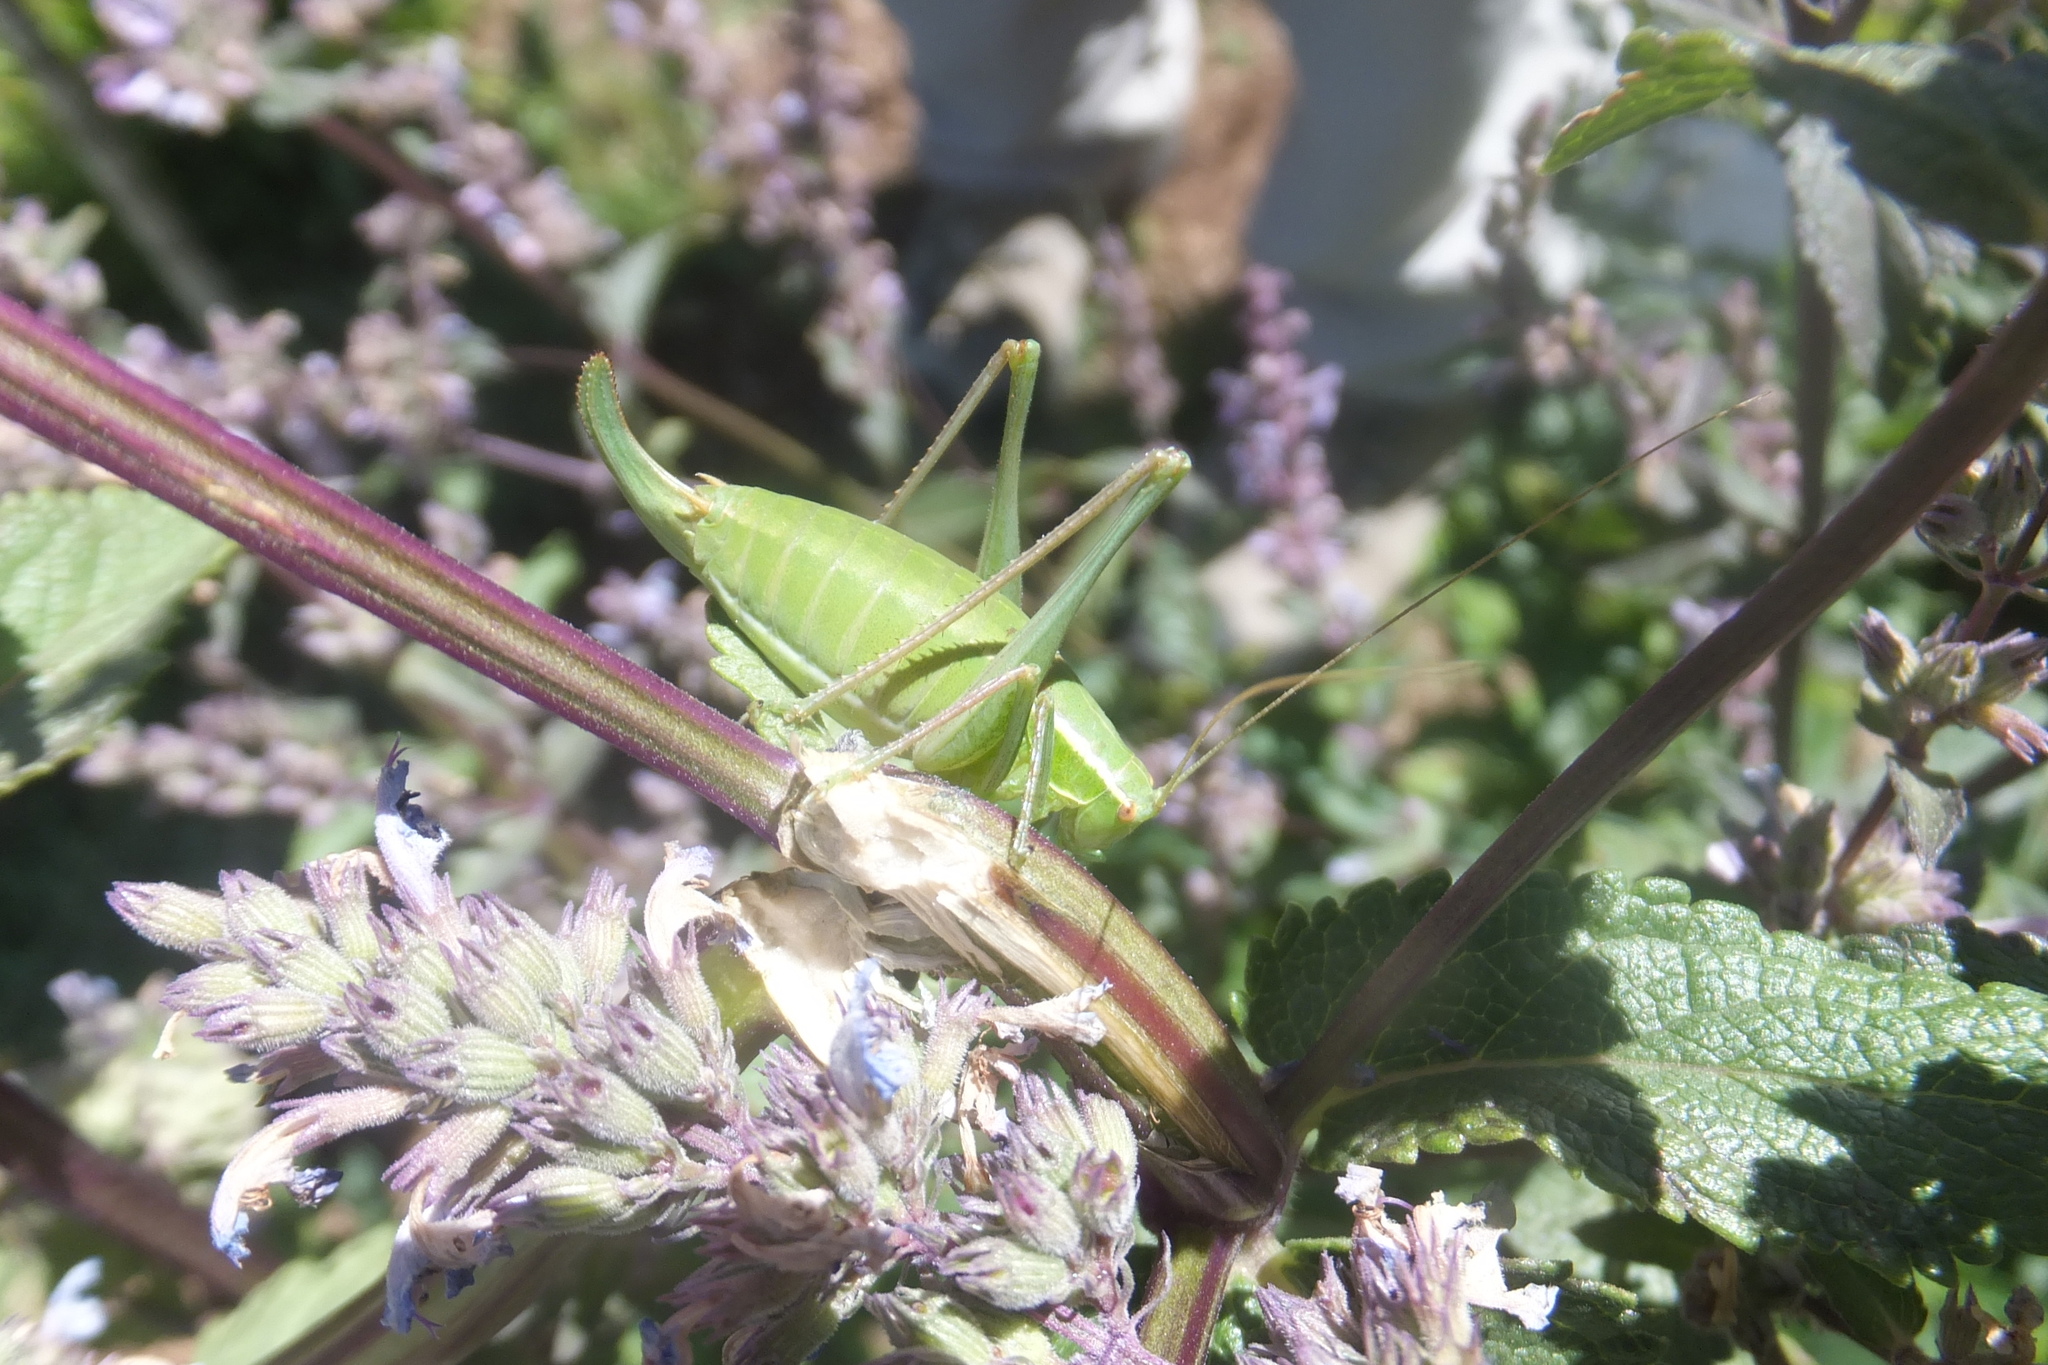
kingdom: Animalia
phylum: Arthropoda
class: Insecta
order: Orthoptera
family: Tettigoniidae
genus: Poecilimon
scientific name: Poecilimon superbus
